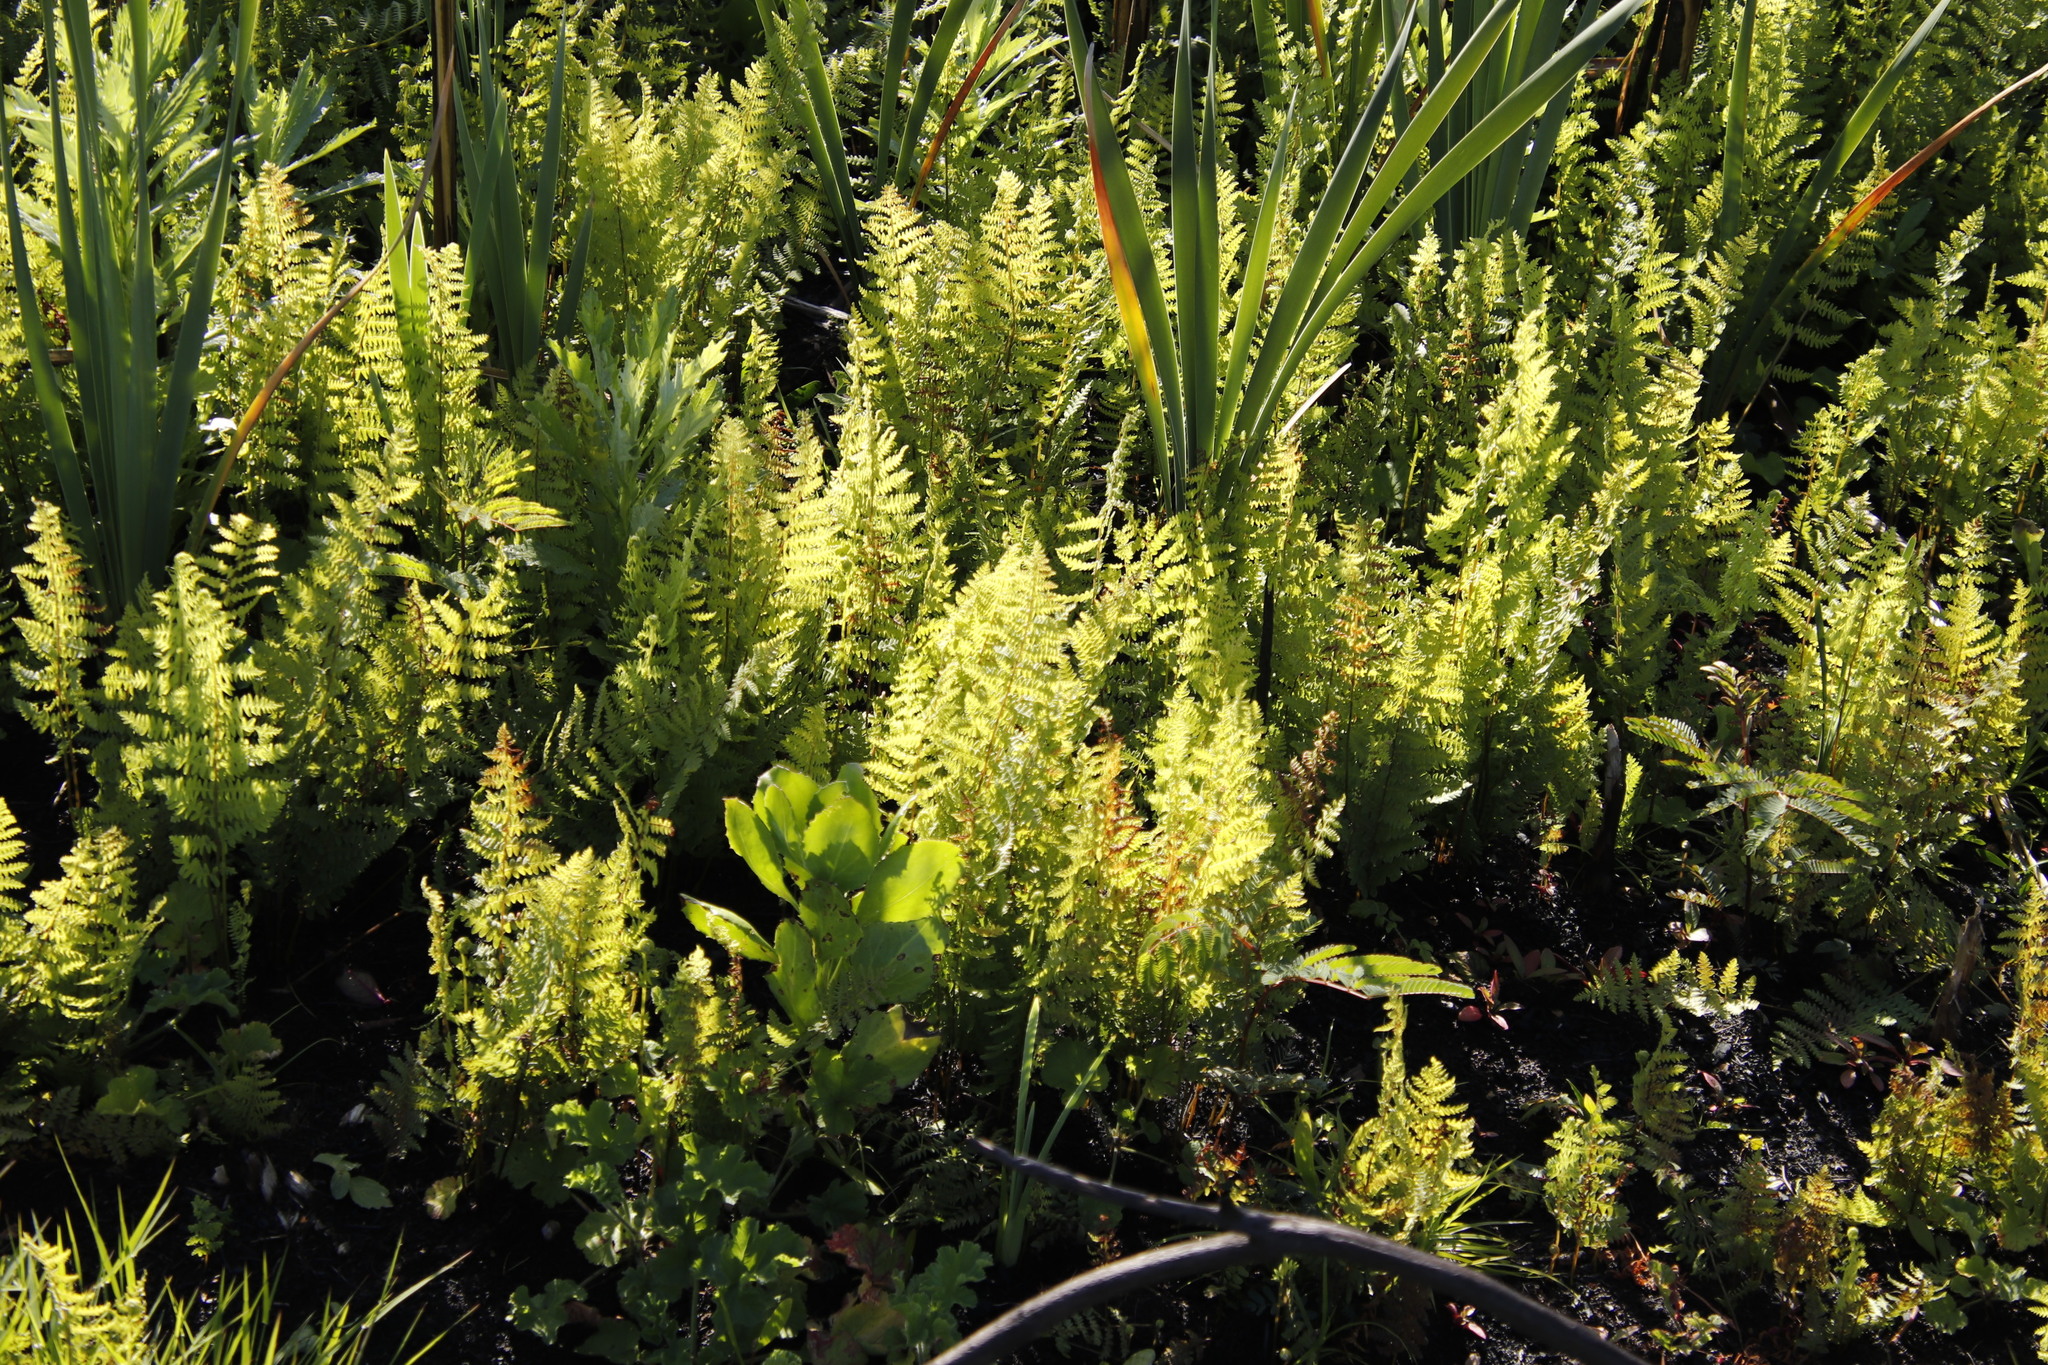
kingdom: Plantae
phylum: Tracheophyta
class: Polypodiopsida
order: Polypodiales
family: Thelypteridaceae
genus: Thelypteris
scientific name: Thelypteris confluens
